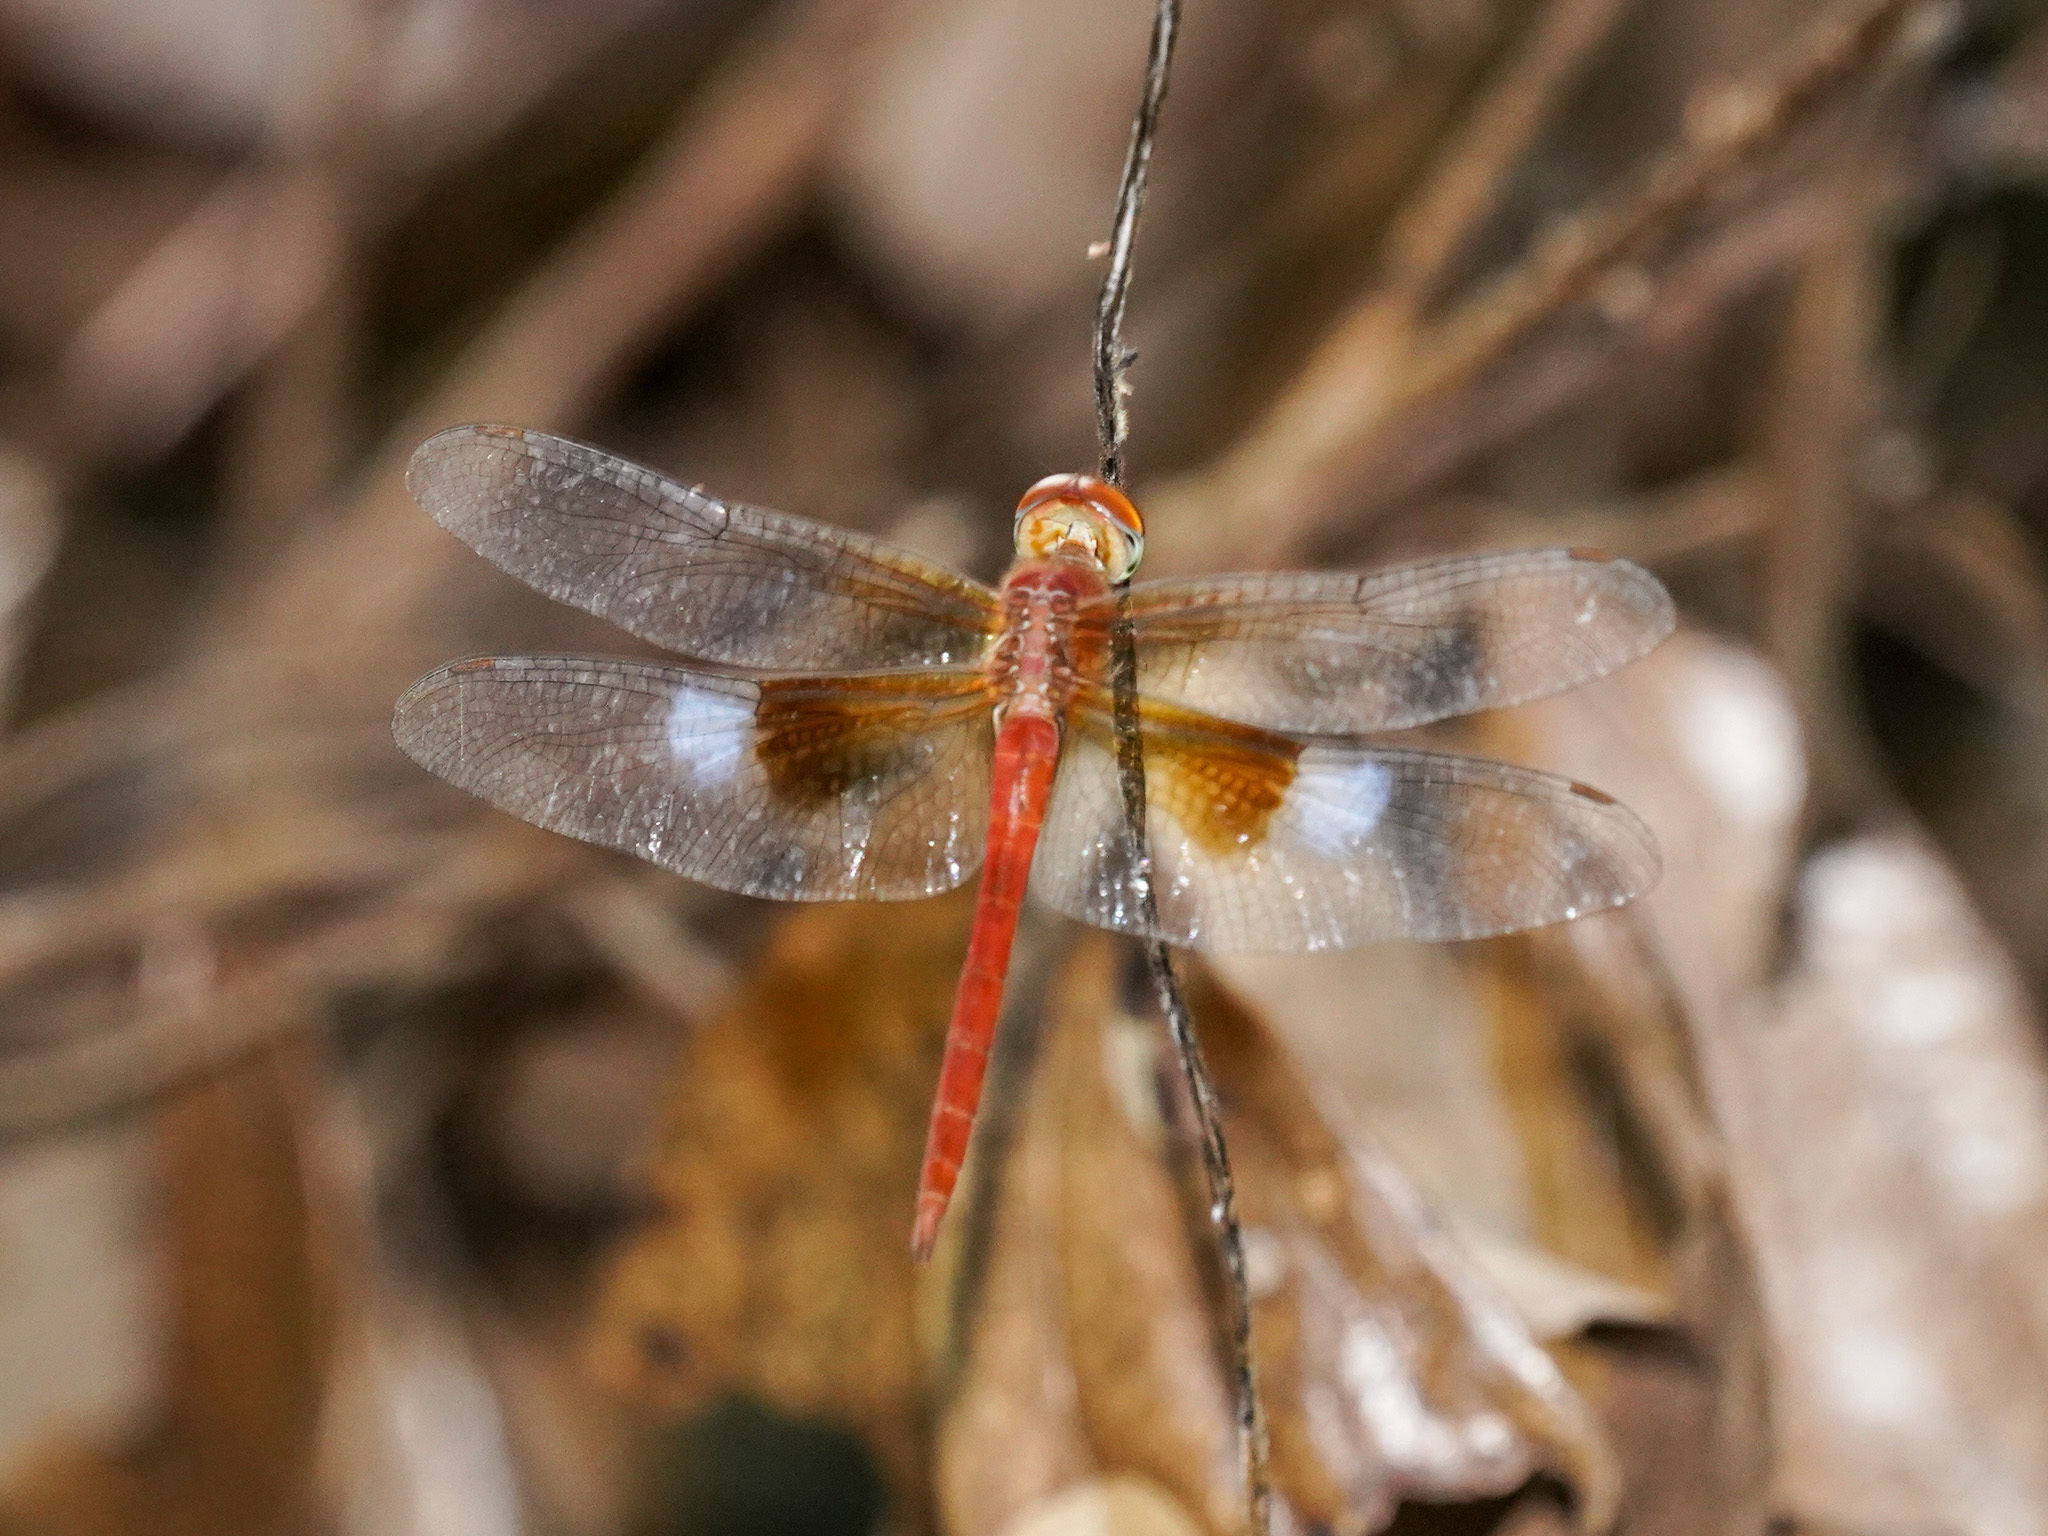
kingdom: Animalia
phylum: Arthropoda
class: Insecta
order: Odonata
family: Libellulidae
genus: Tholymis
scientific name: Tholymis tillarga
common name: Coral-tailed cloud wing
